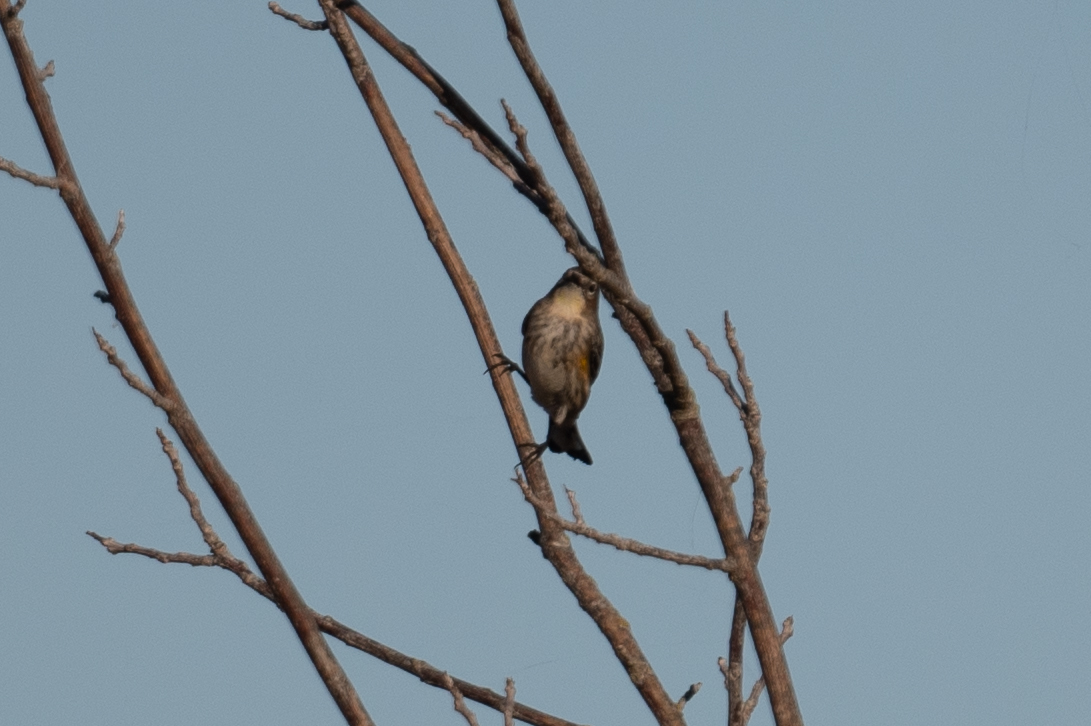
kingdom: Animalia
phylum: Chordata
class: Aves
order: Passeriformes
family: Parulidae
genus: Setophaga
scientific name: Setophaga coronata
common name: Myrtle warbler
